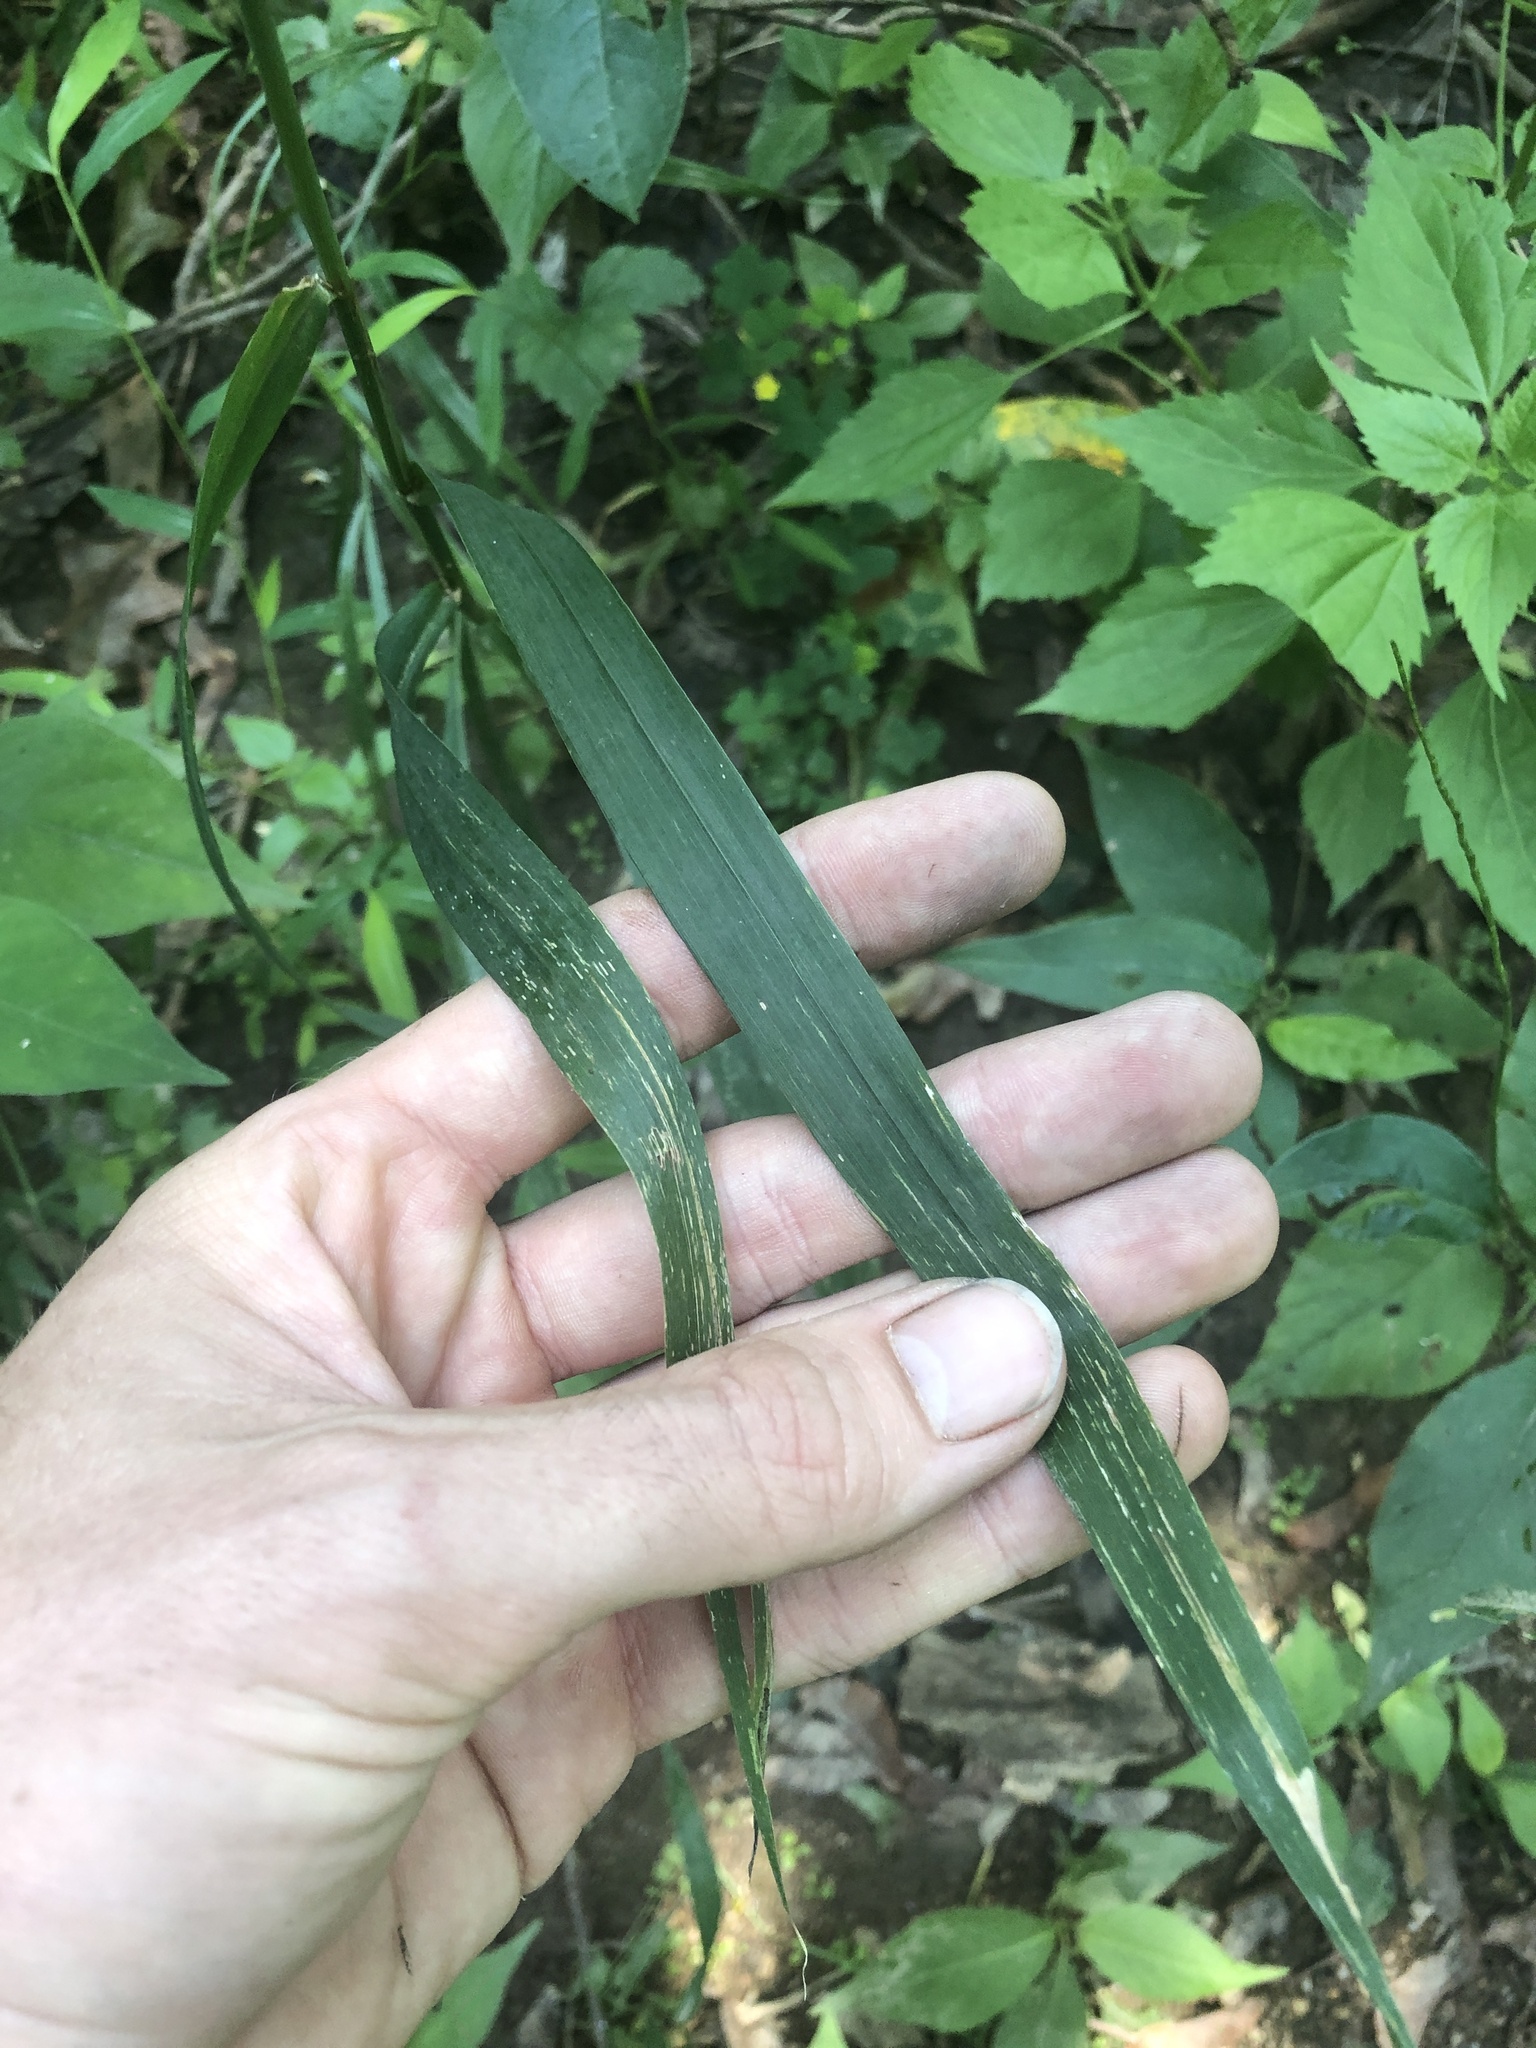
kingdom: Plantae
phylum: Tracheophyta
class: Liliopsida
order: Poales
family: Poaceae
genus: Cinna
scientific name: Cinna arundinacea
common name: Stout woodreed
